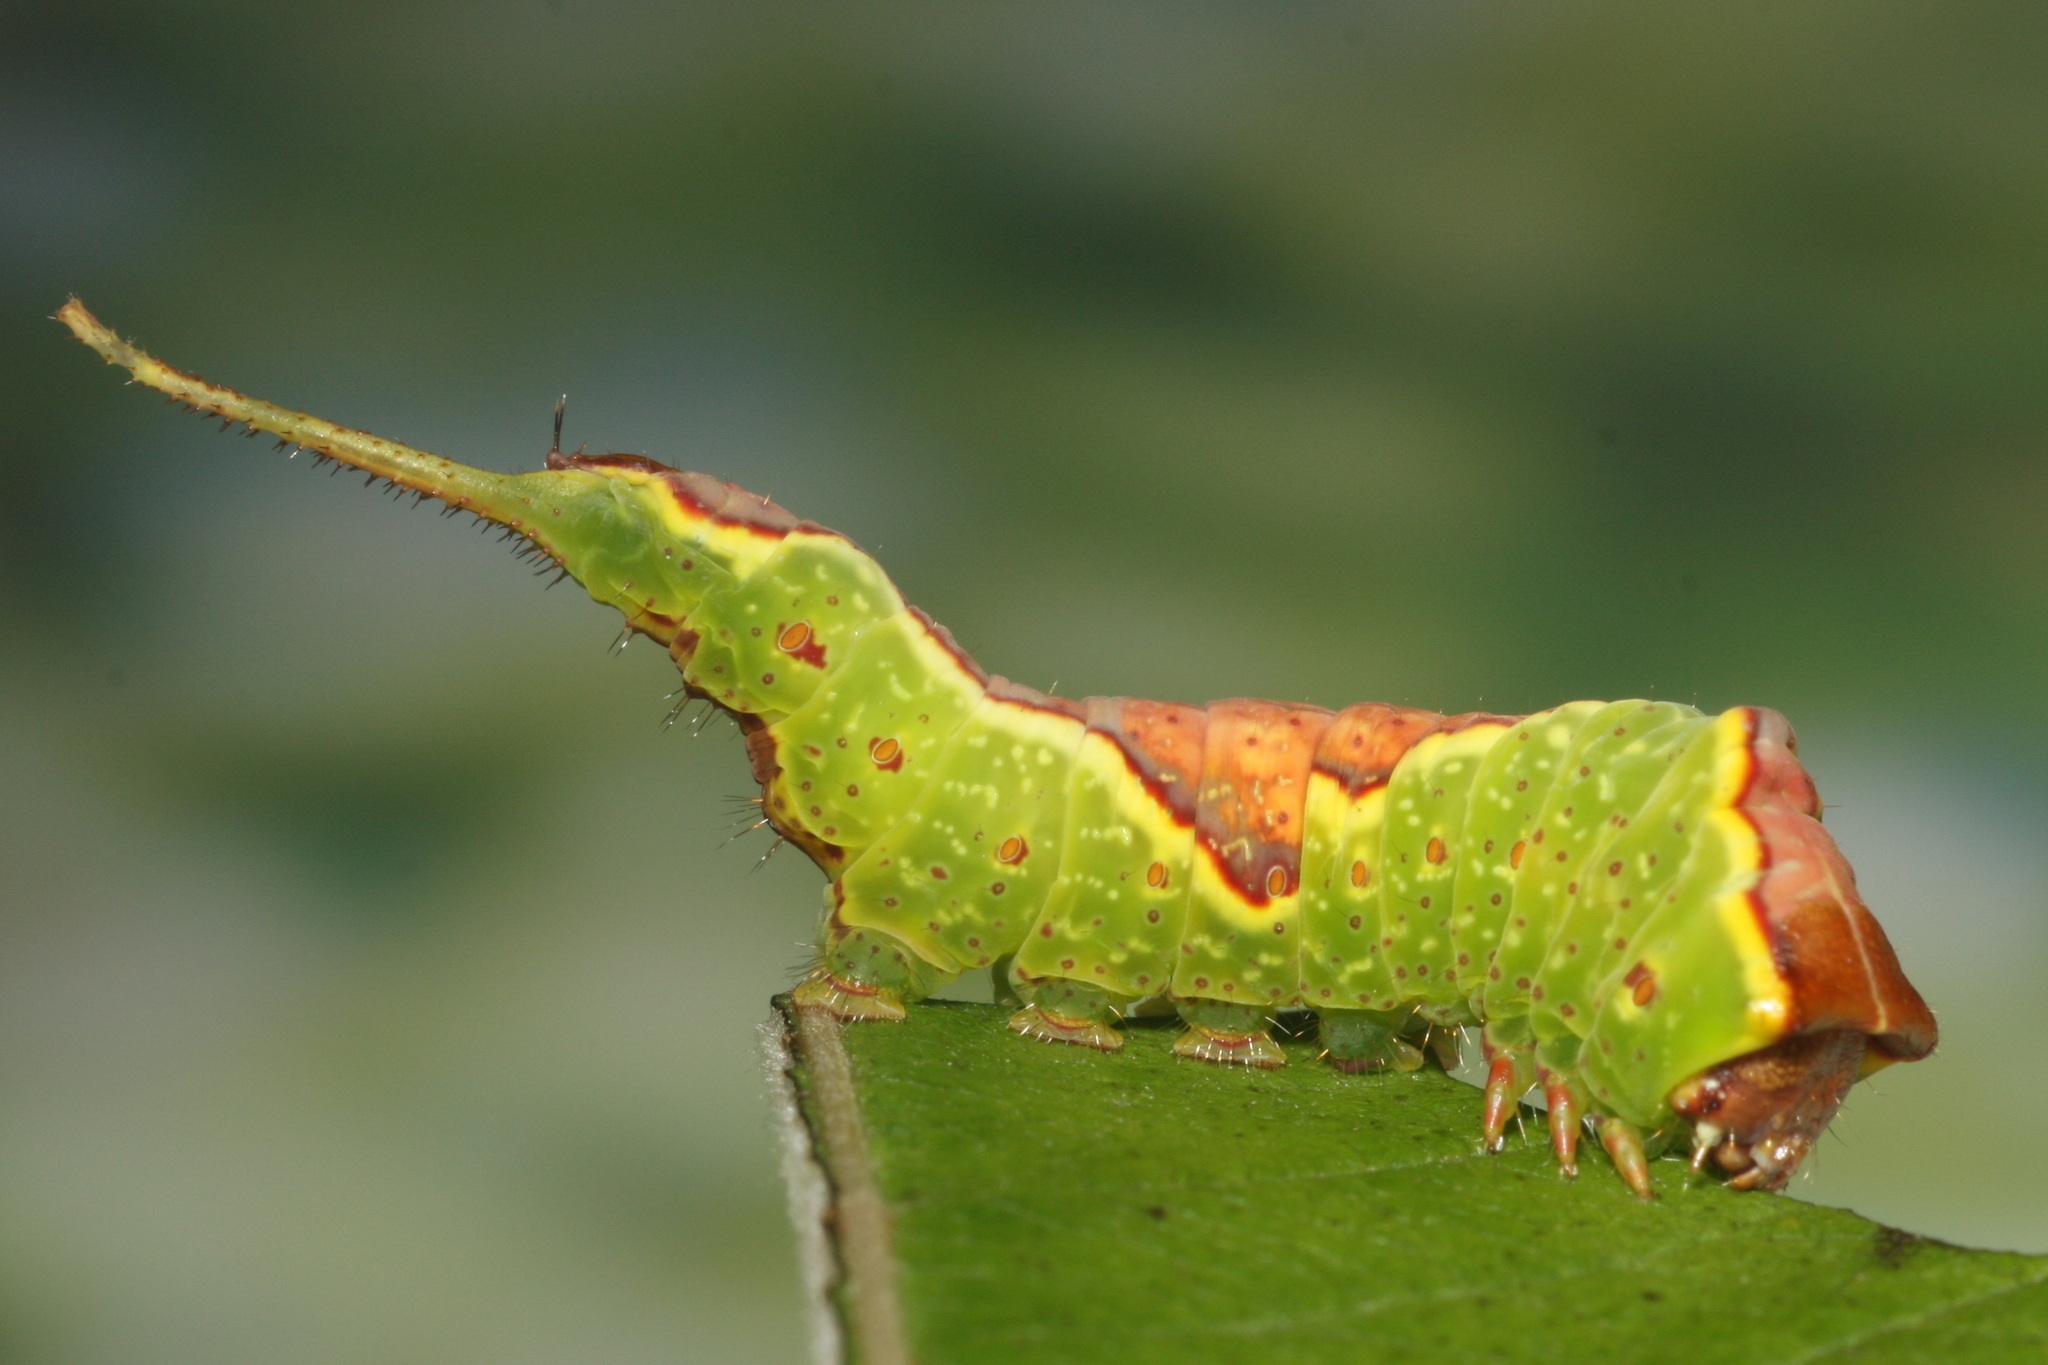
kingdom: Animalia
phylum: Arthropoda
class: Insecta
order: Lepidoptera
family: Notodontidae
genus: Furcula
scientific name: Furcula bifida
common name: Poplar kitten
